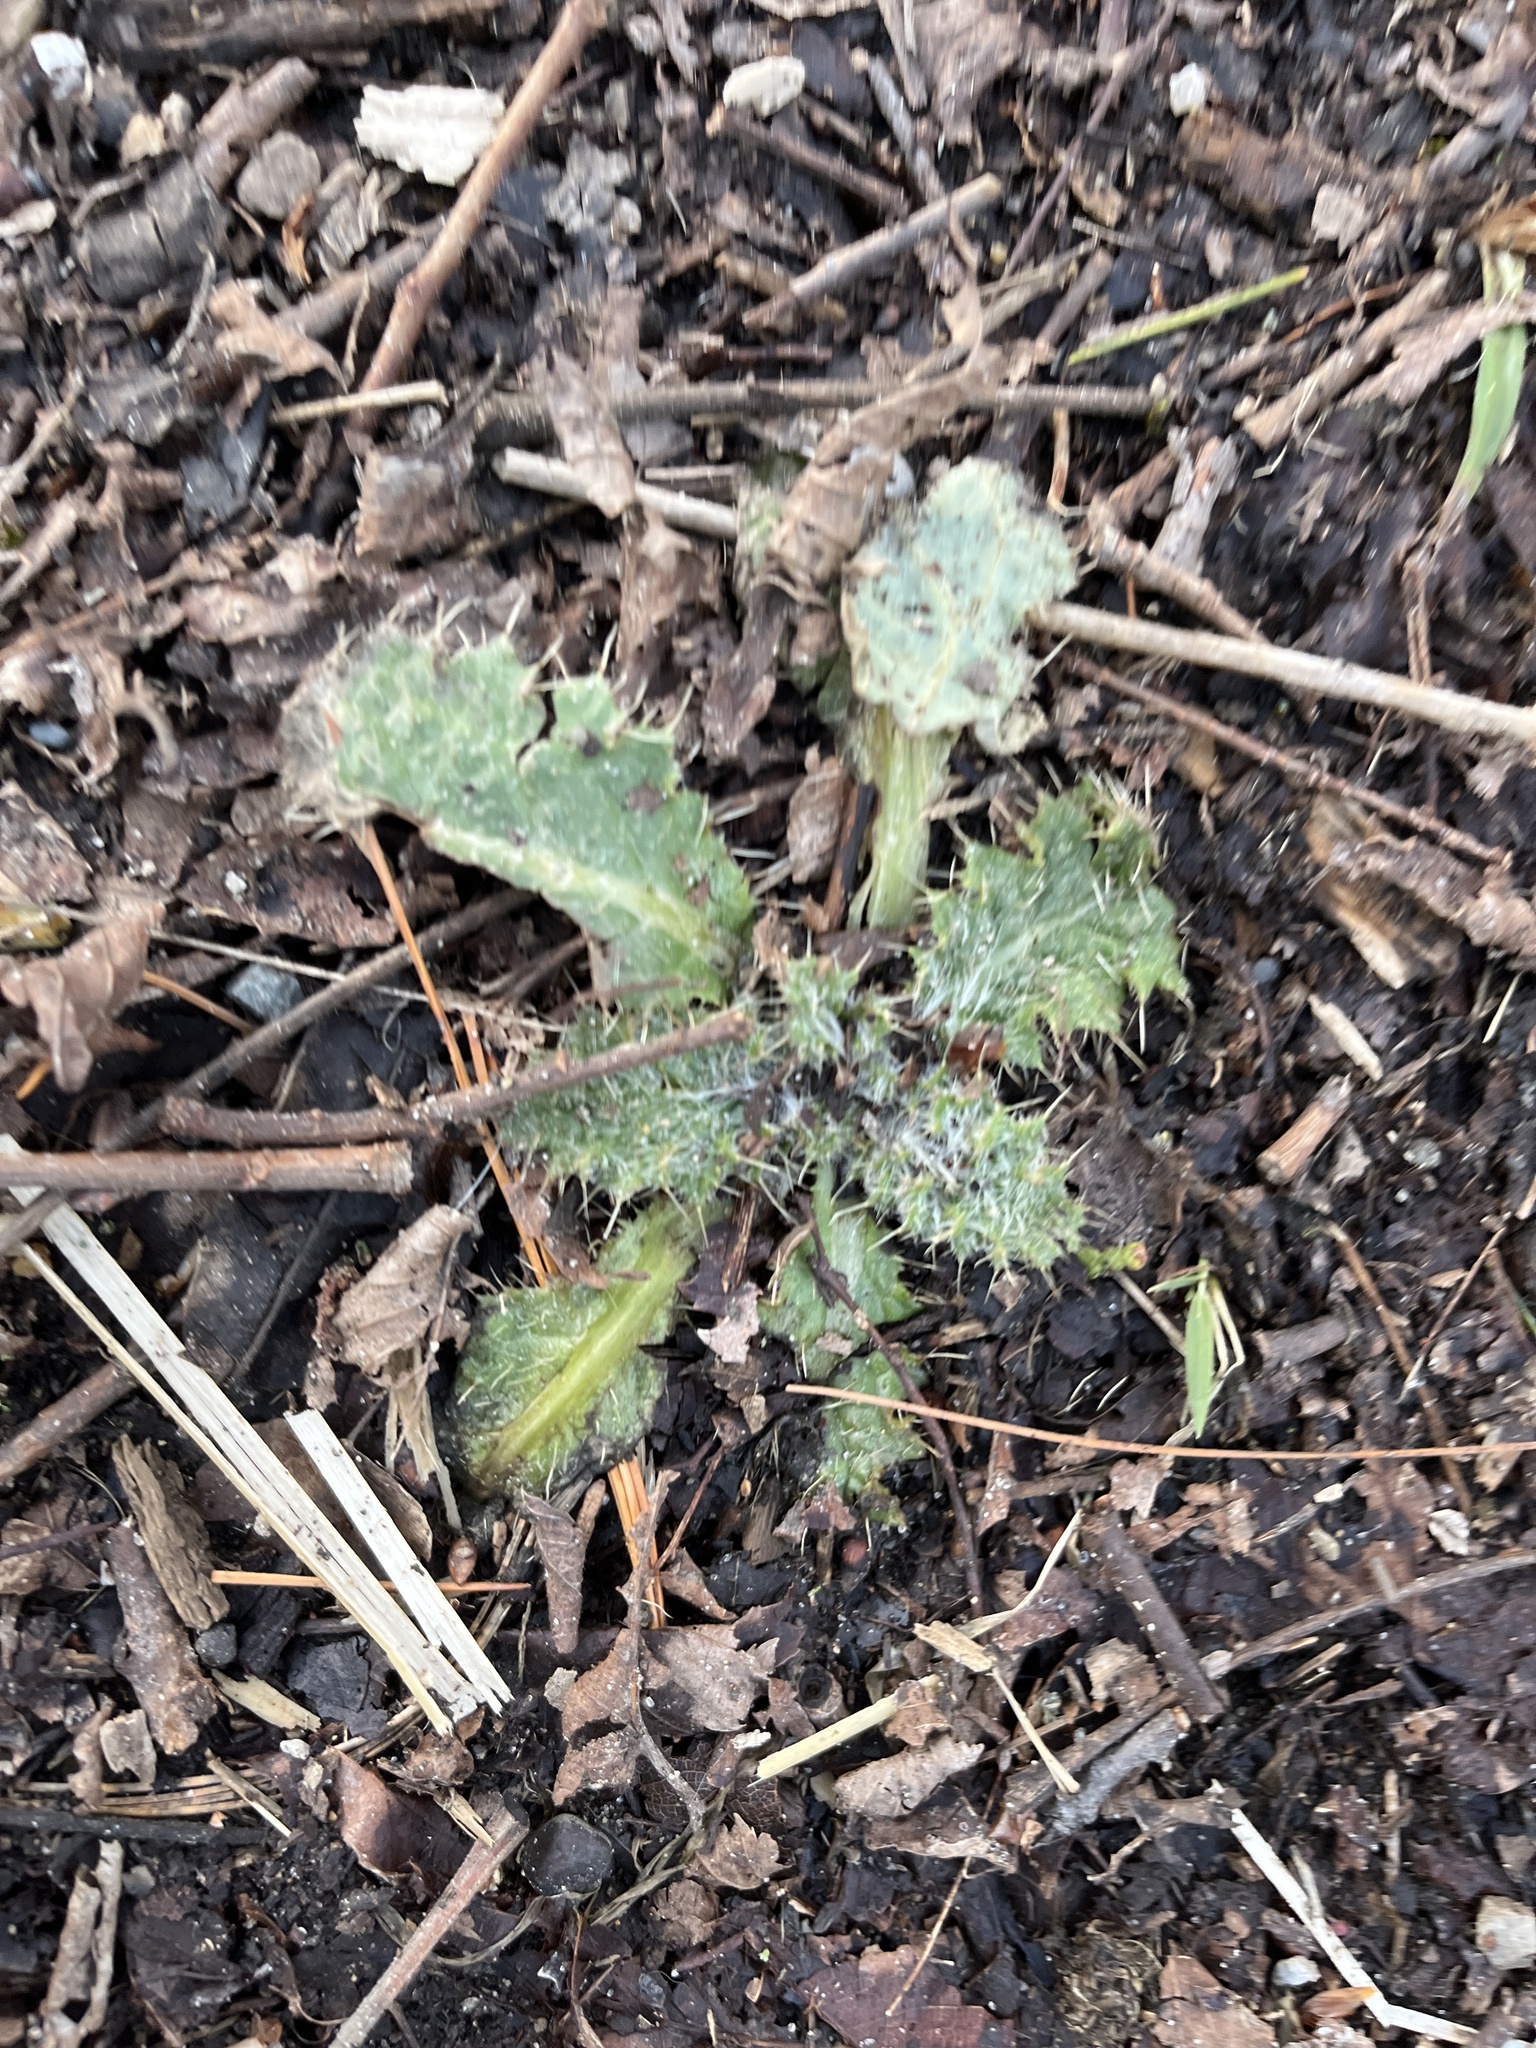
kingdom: Plantae
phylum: Tracheophyta
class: Magnoliopsida
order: Asterales
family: Asteraceae
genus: Cirsium
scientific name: Cirsium vulgare
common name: Bull thistle
